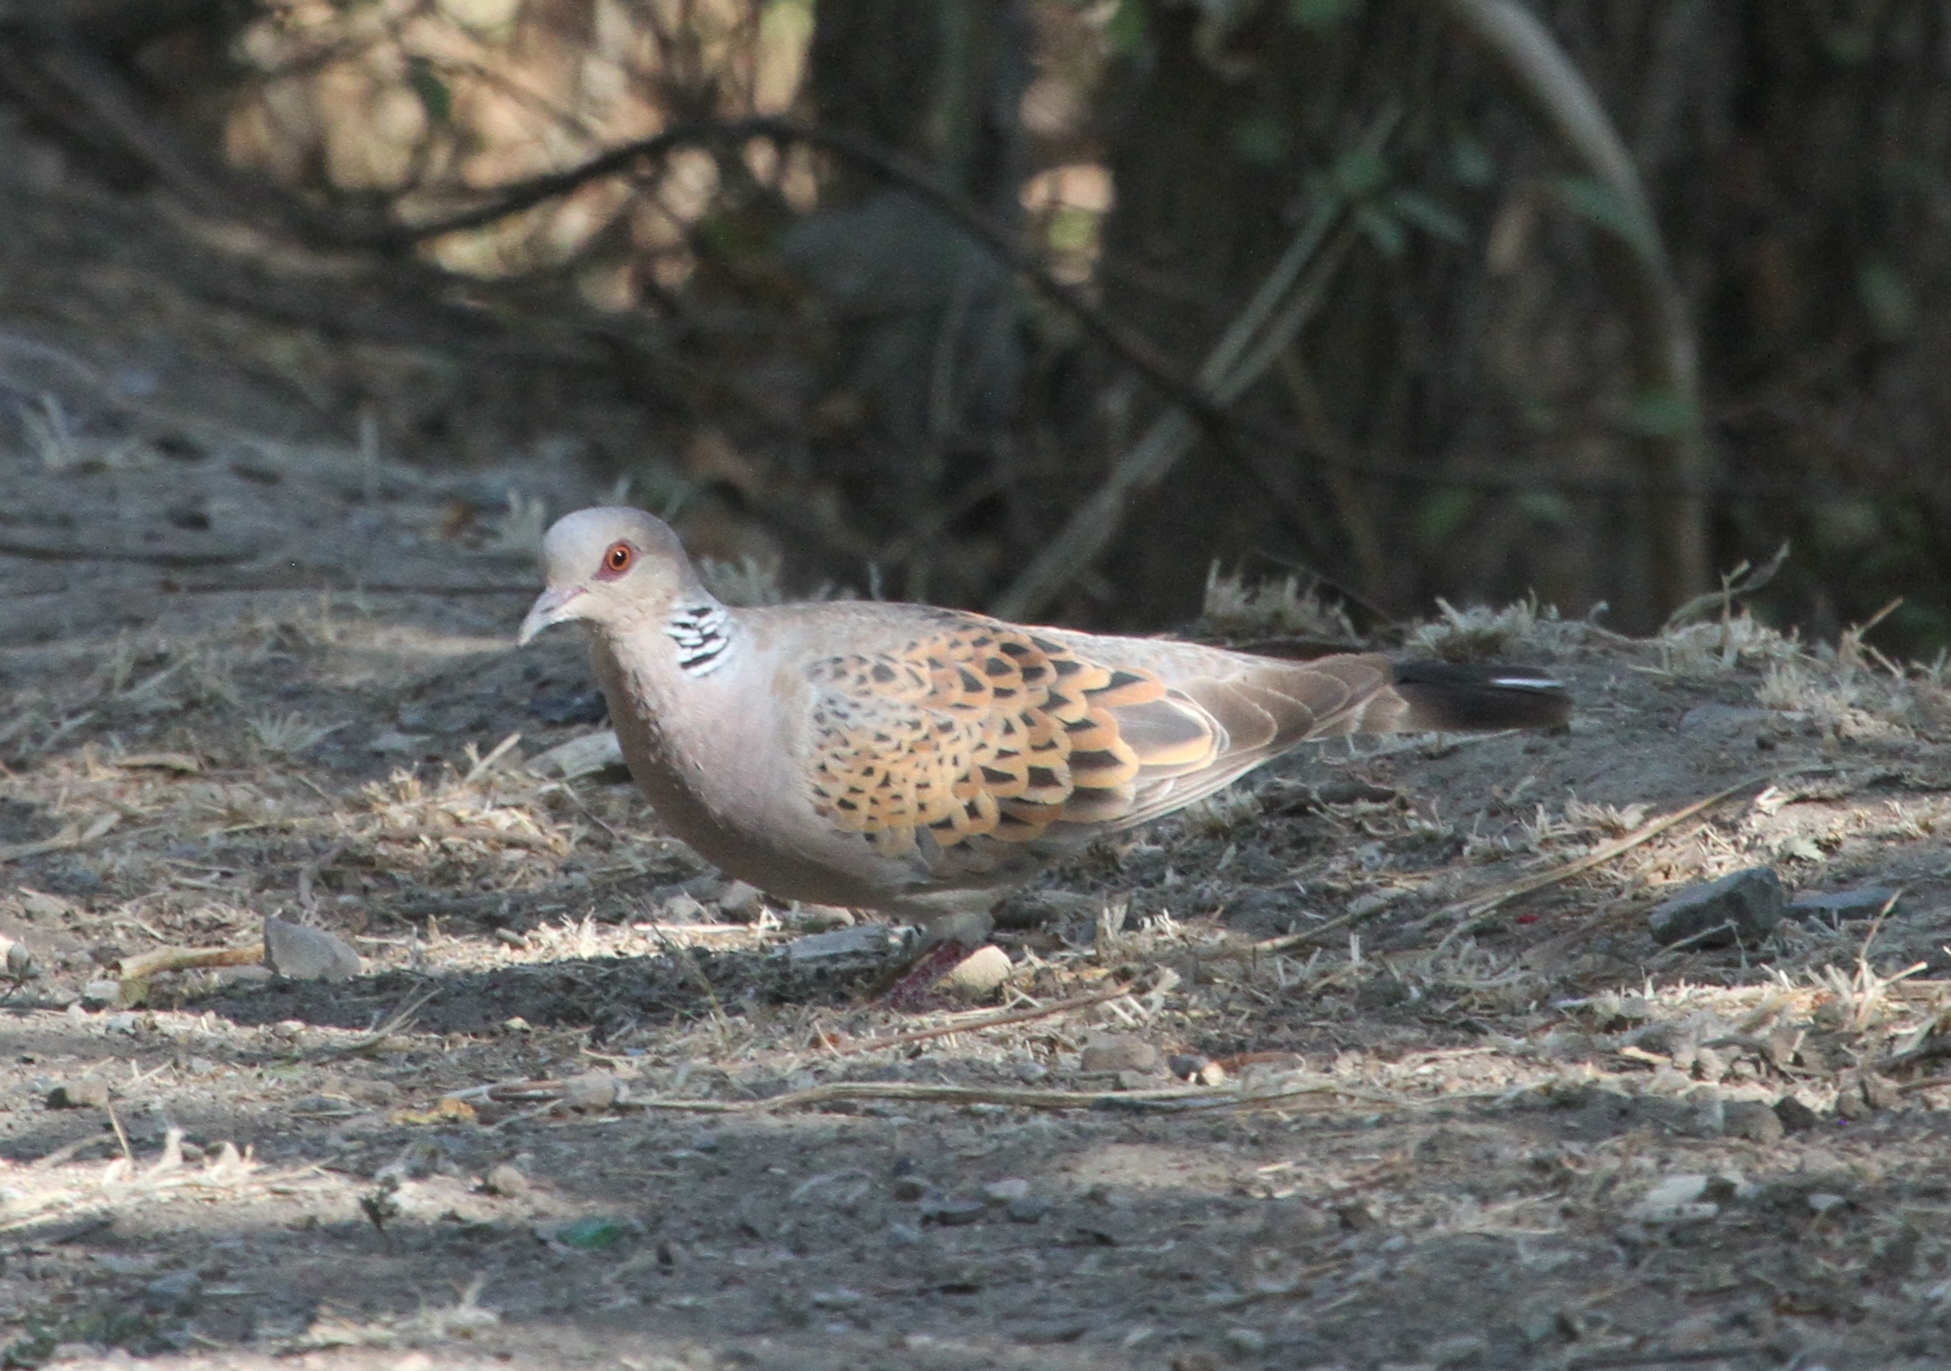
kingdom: Animalia
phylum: Chordata
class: Aves
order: Columbiformes
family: Columbidae
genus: Streptopelia
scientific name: Streptopelia turtur
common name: European turtle dove
